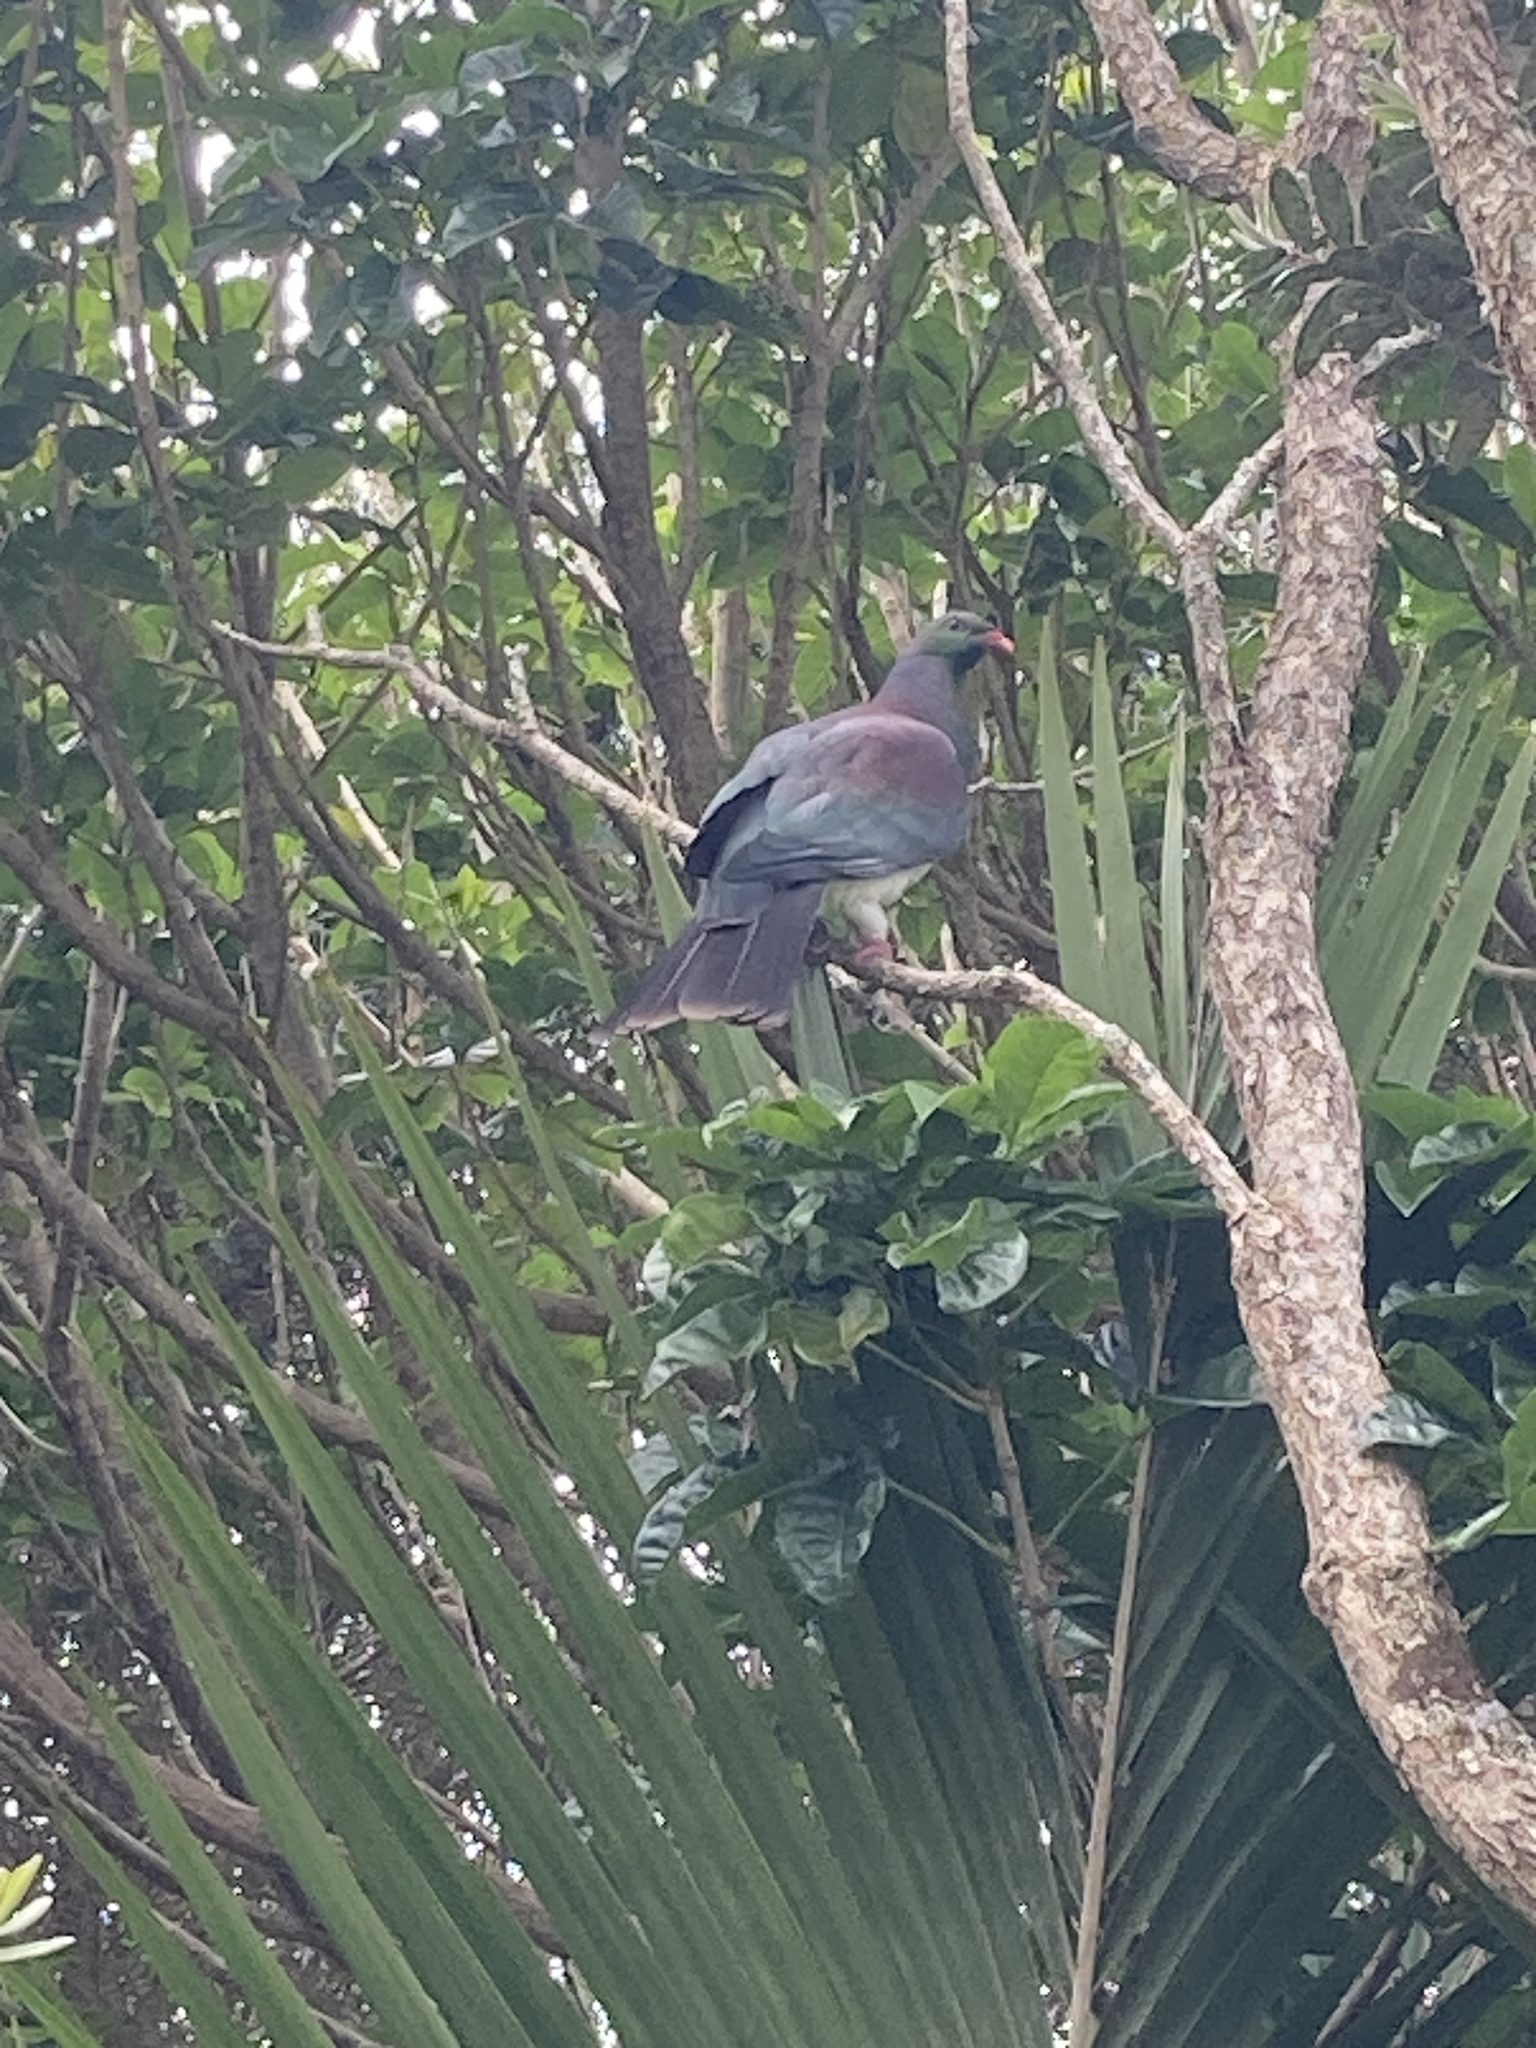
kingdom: Animalia
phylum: Chordata
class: Aves
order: Columbiformes
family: Columbidae
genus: Hemiphaga
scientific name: Hemiphaga novaeseelandiae
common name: New zealand pigeon
